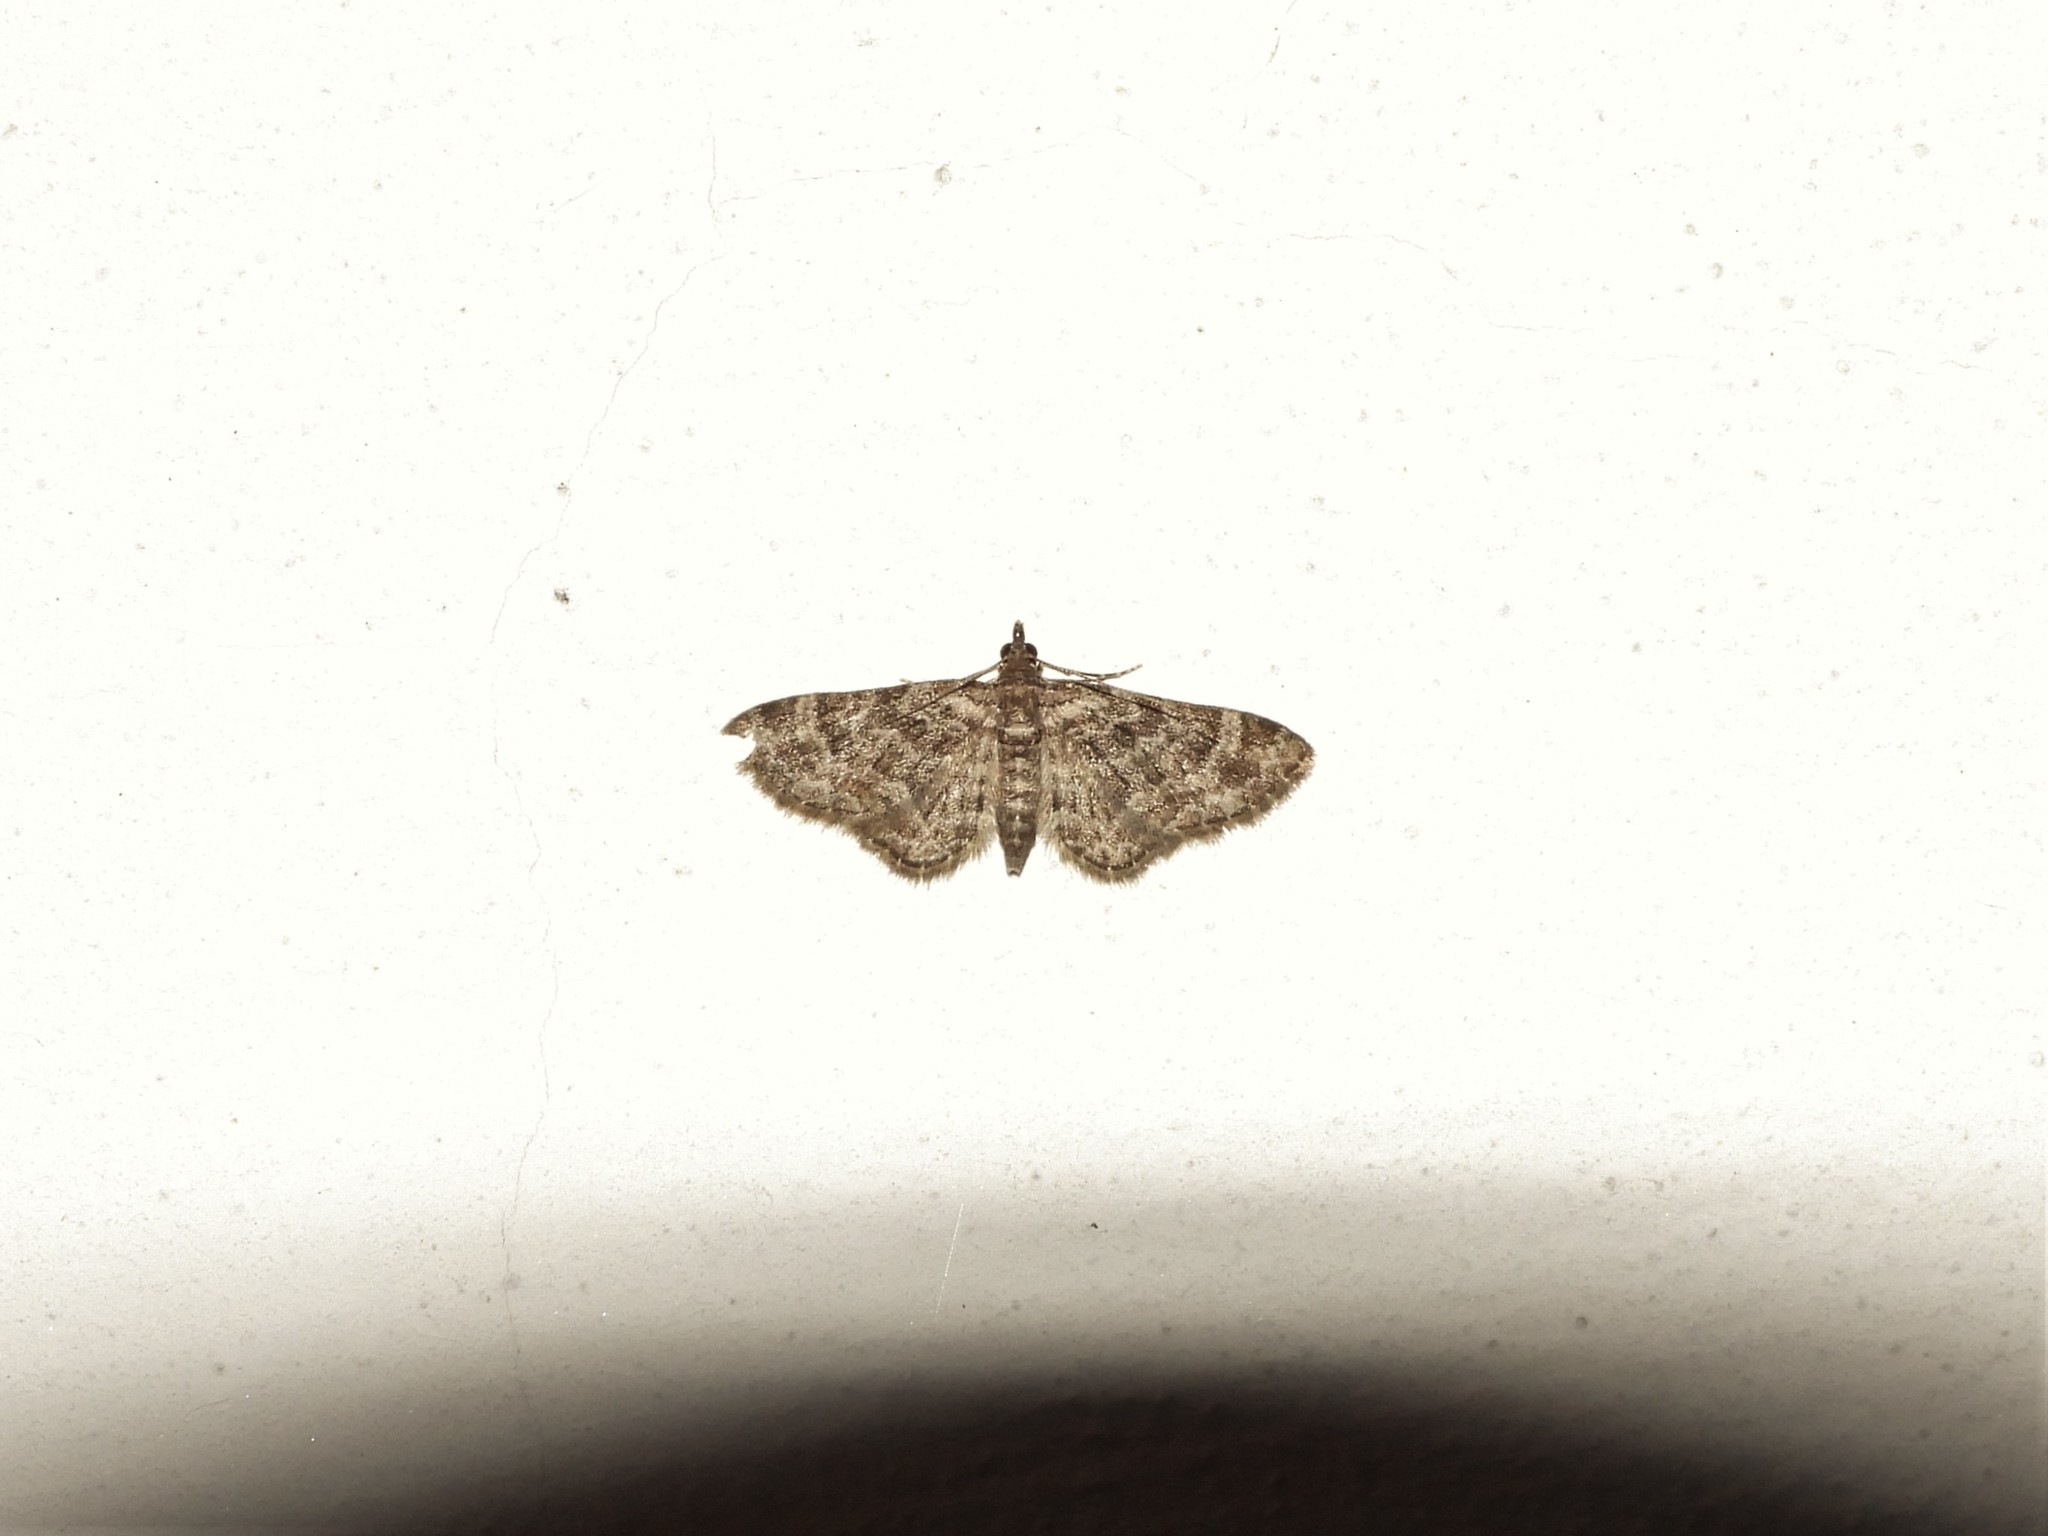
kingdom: Animalia
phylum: Arthropoda
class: Insecta
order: Lepidoptera
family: Geometridae
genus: Gymnoscelis
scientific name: Gymnoscelis rufifasciata
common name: Double-striped pug
